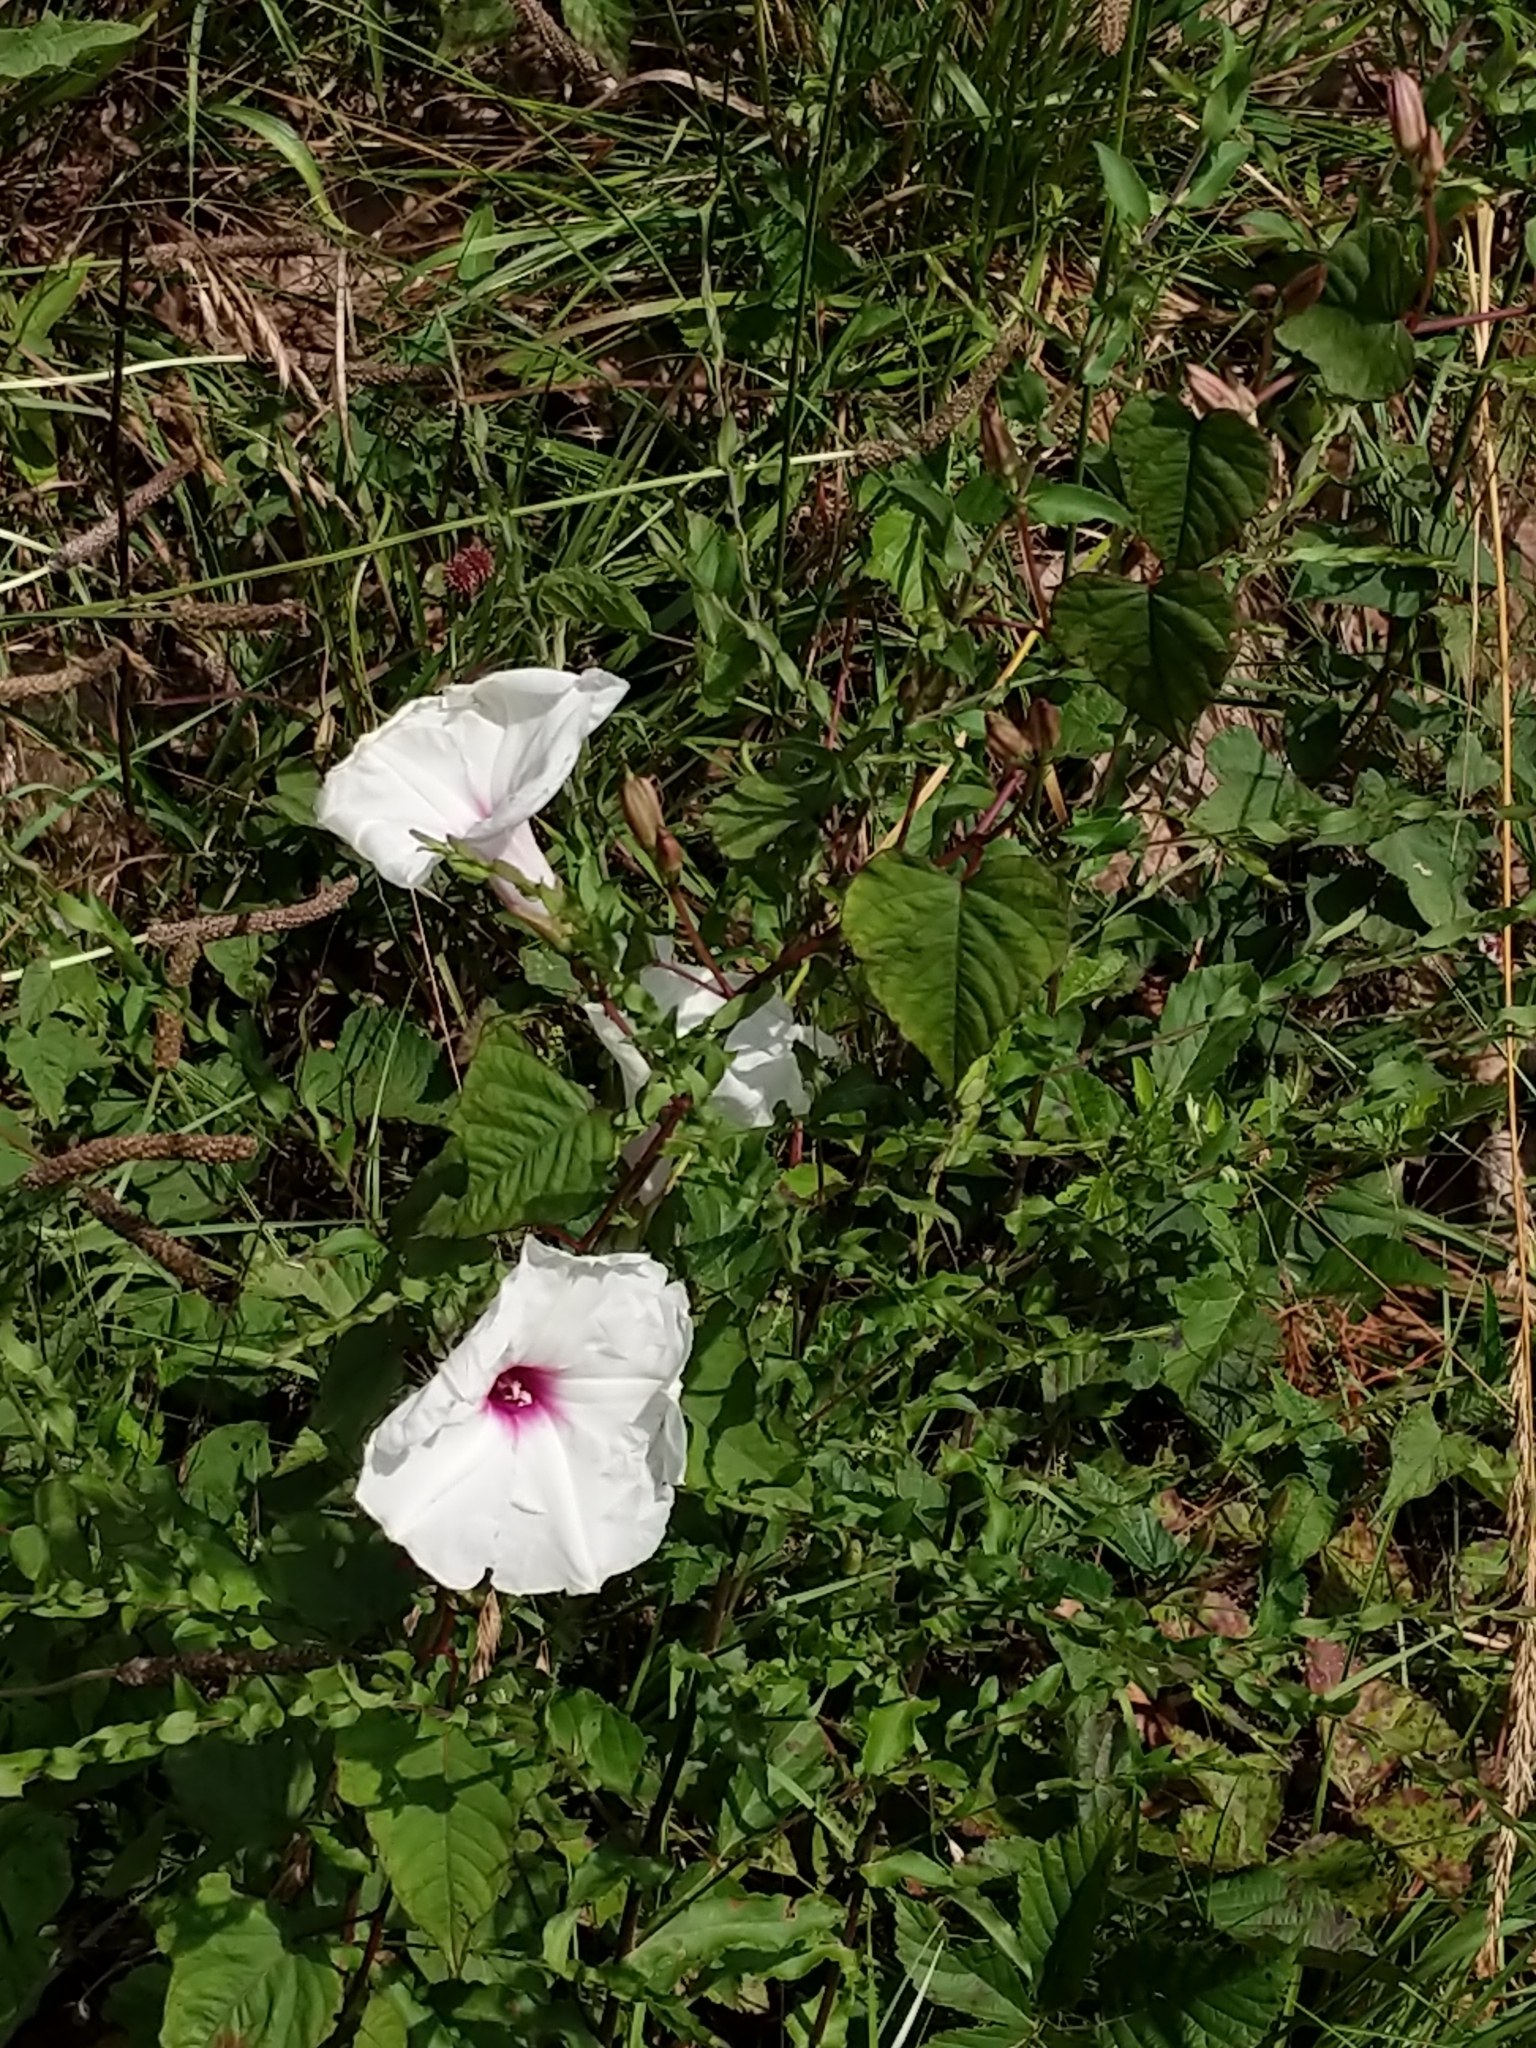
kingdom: Plantae
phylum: Tracheophyta
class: Magnoliopsida
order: Solanales
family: Convolvulaceae
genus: Ipomoea
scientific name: Ipomoea pandurata
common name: Man-of-the-earth
